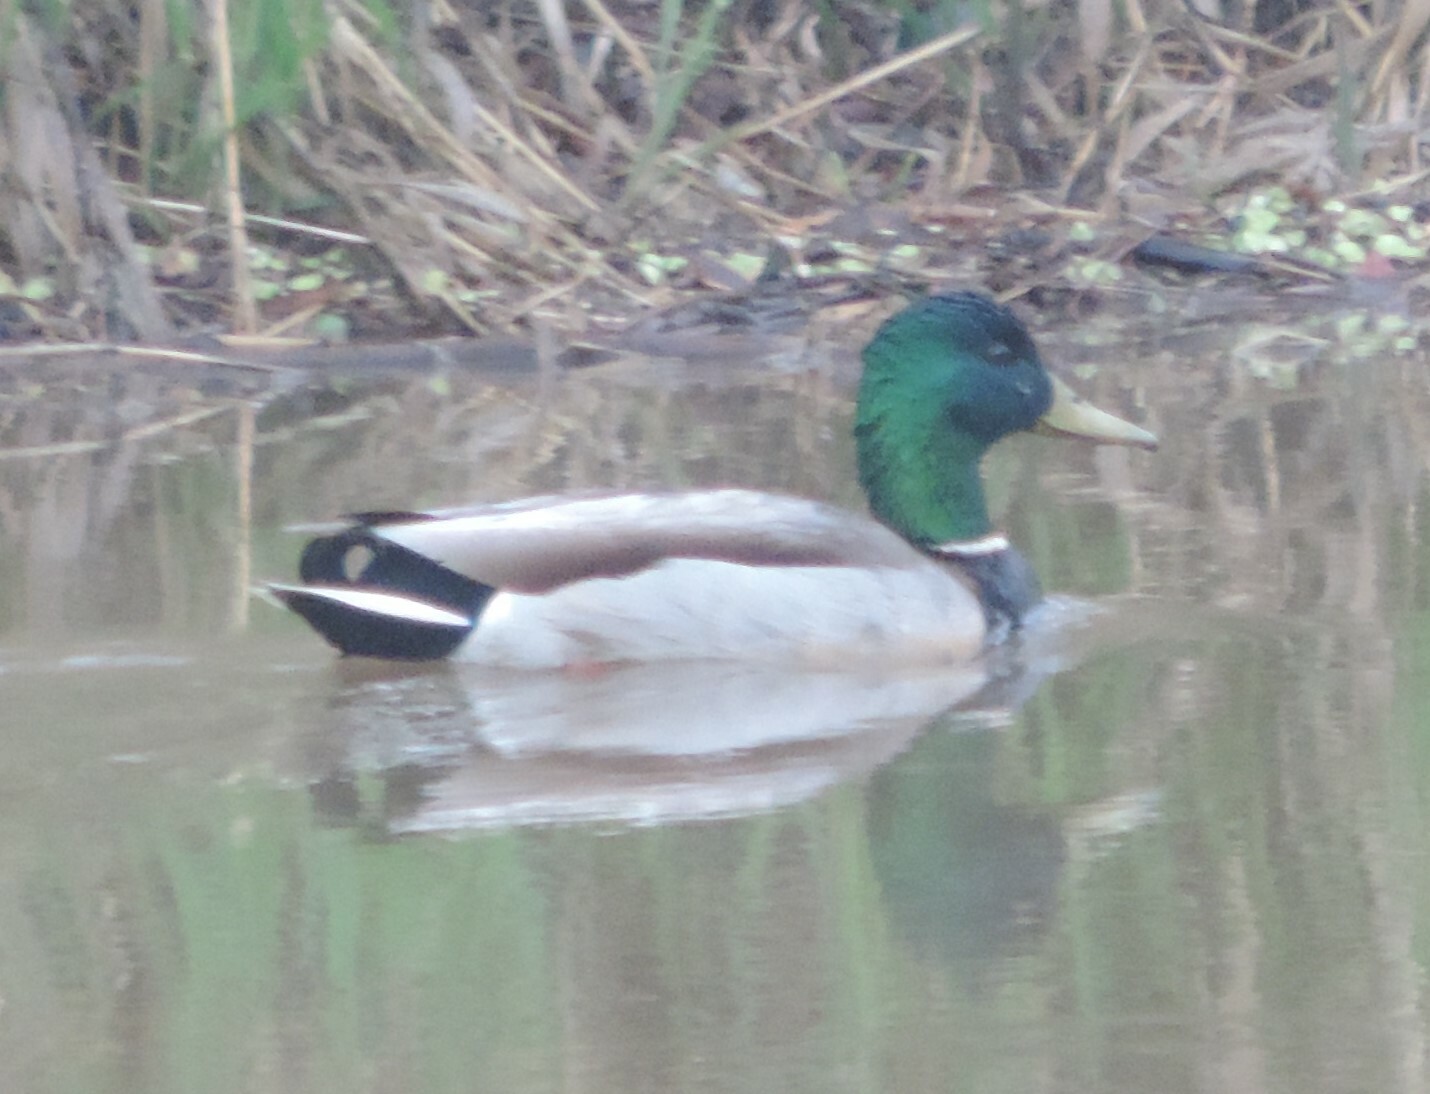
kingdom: Animalia
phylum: Chordata
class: Aves
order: Anseriformes
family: Anatidae
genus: Anas
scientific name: Anas platyrhynchos
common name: Mallard
